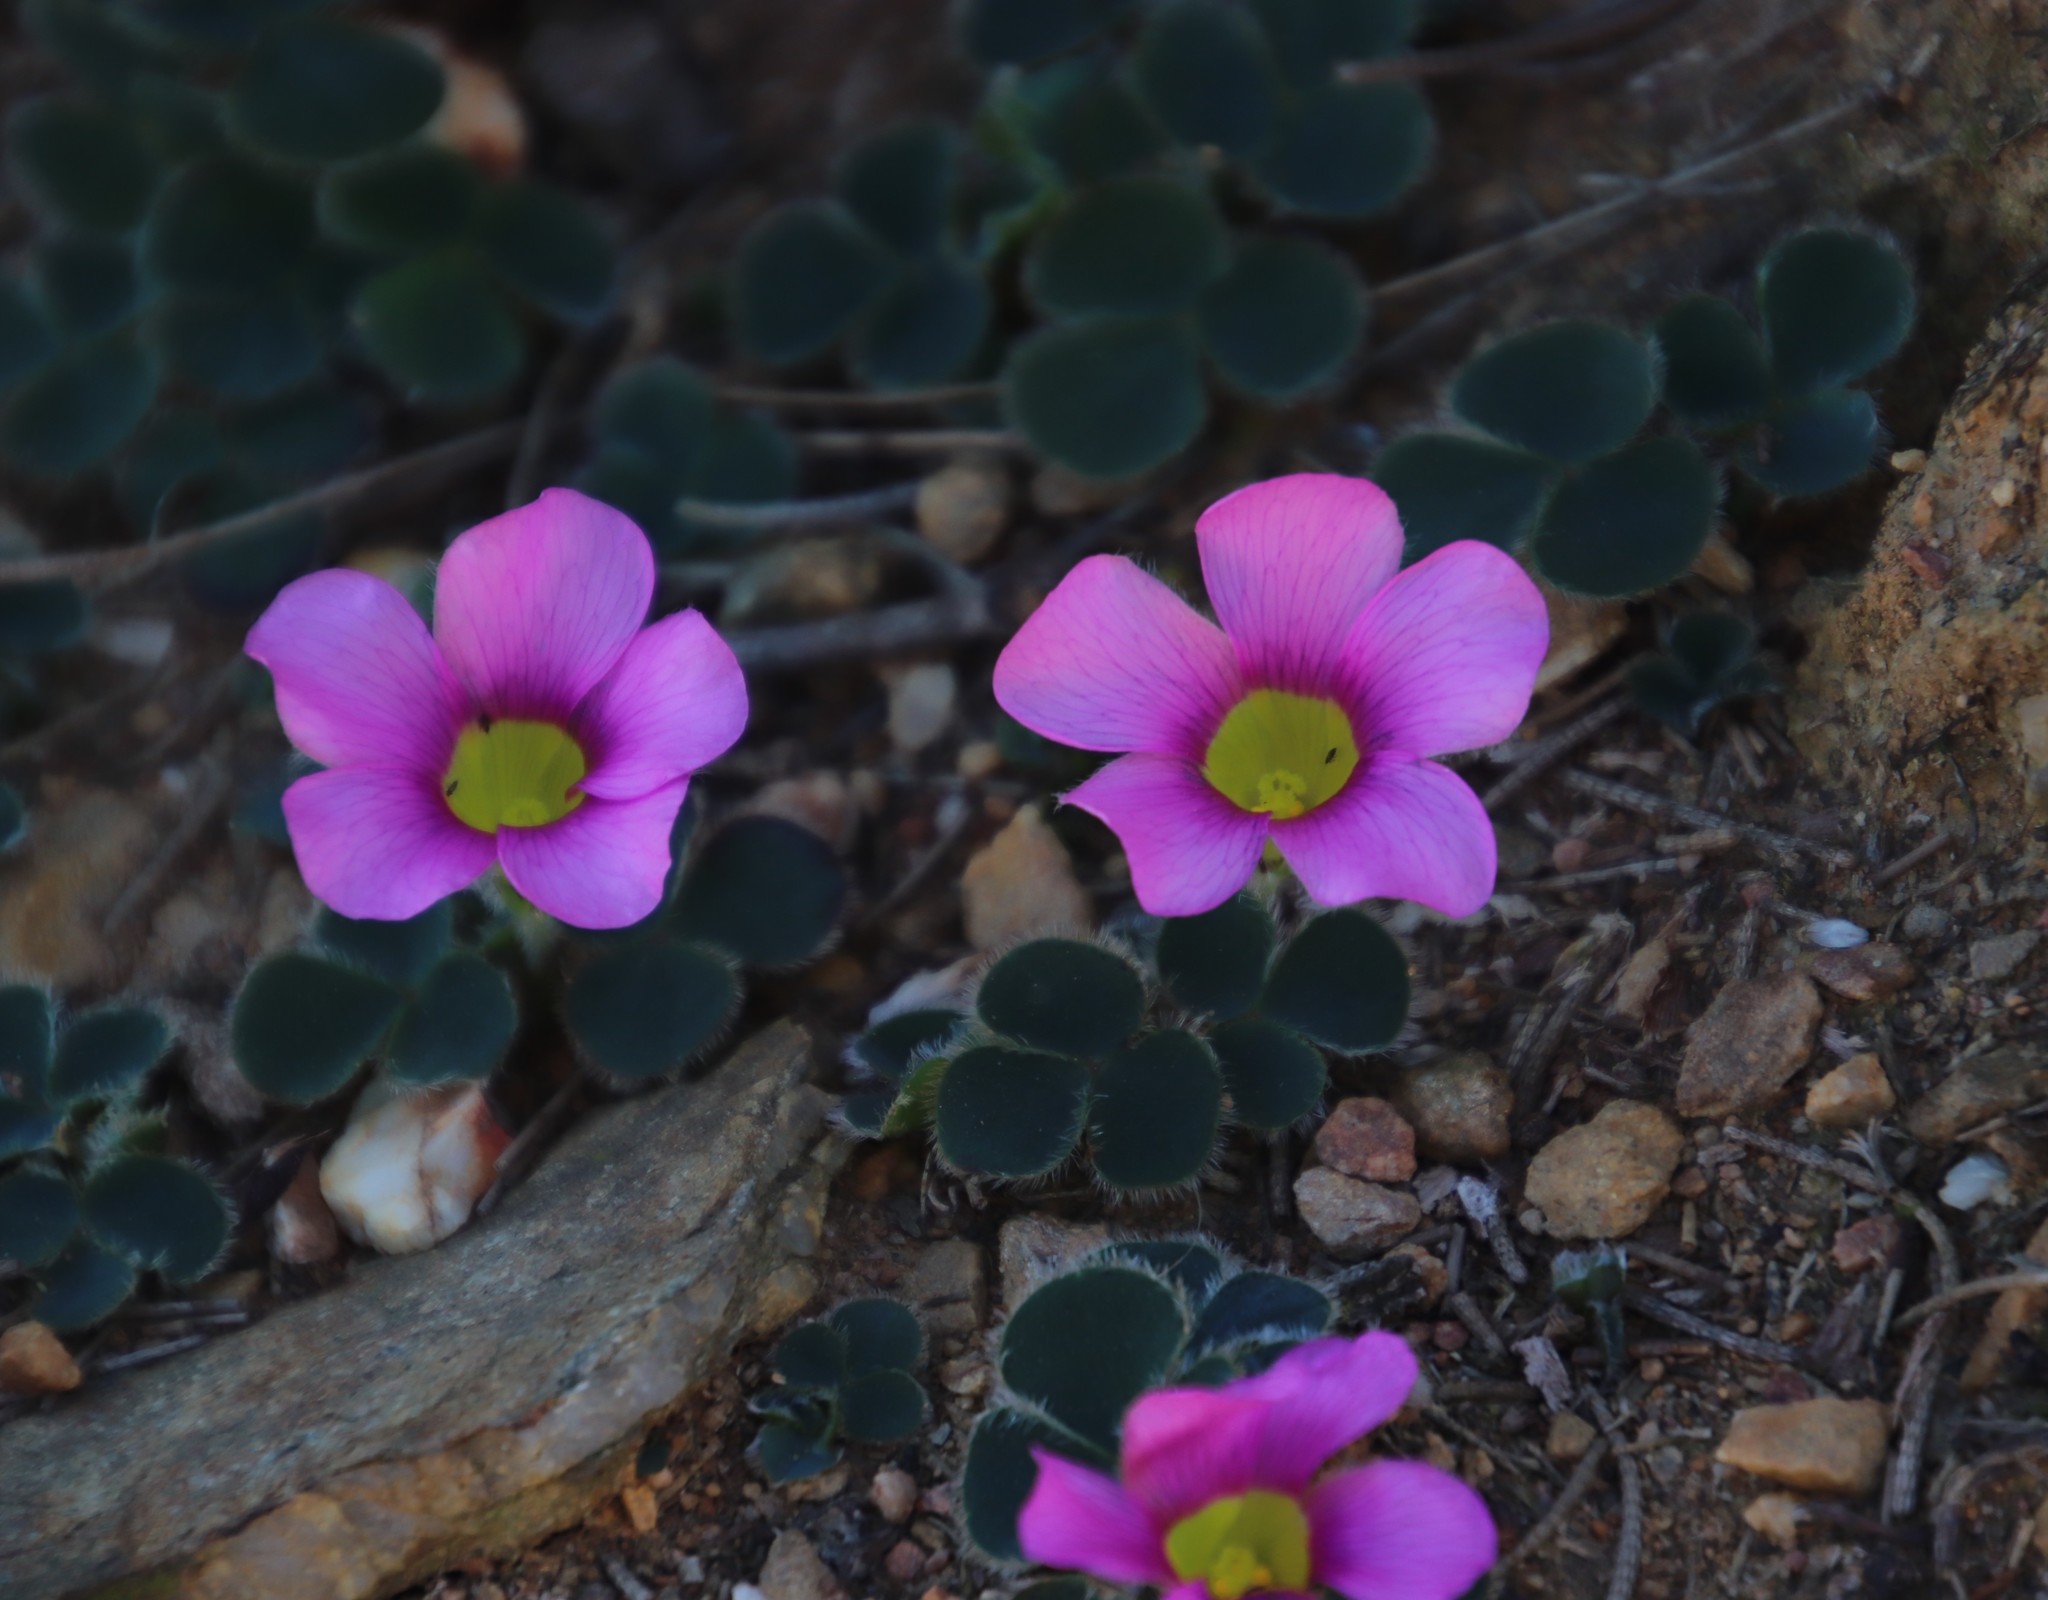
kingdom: Plantae
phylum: Tracheophyta
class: Magnoliopsida
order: Oxalidales
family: Oxalidaceae
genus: Oxalis
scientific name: Oxalis purpurea
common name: Purple woodsorrel
